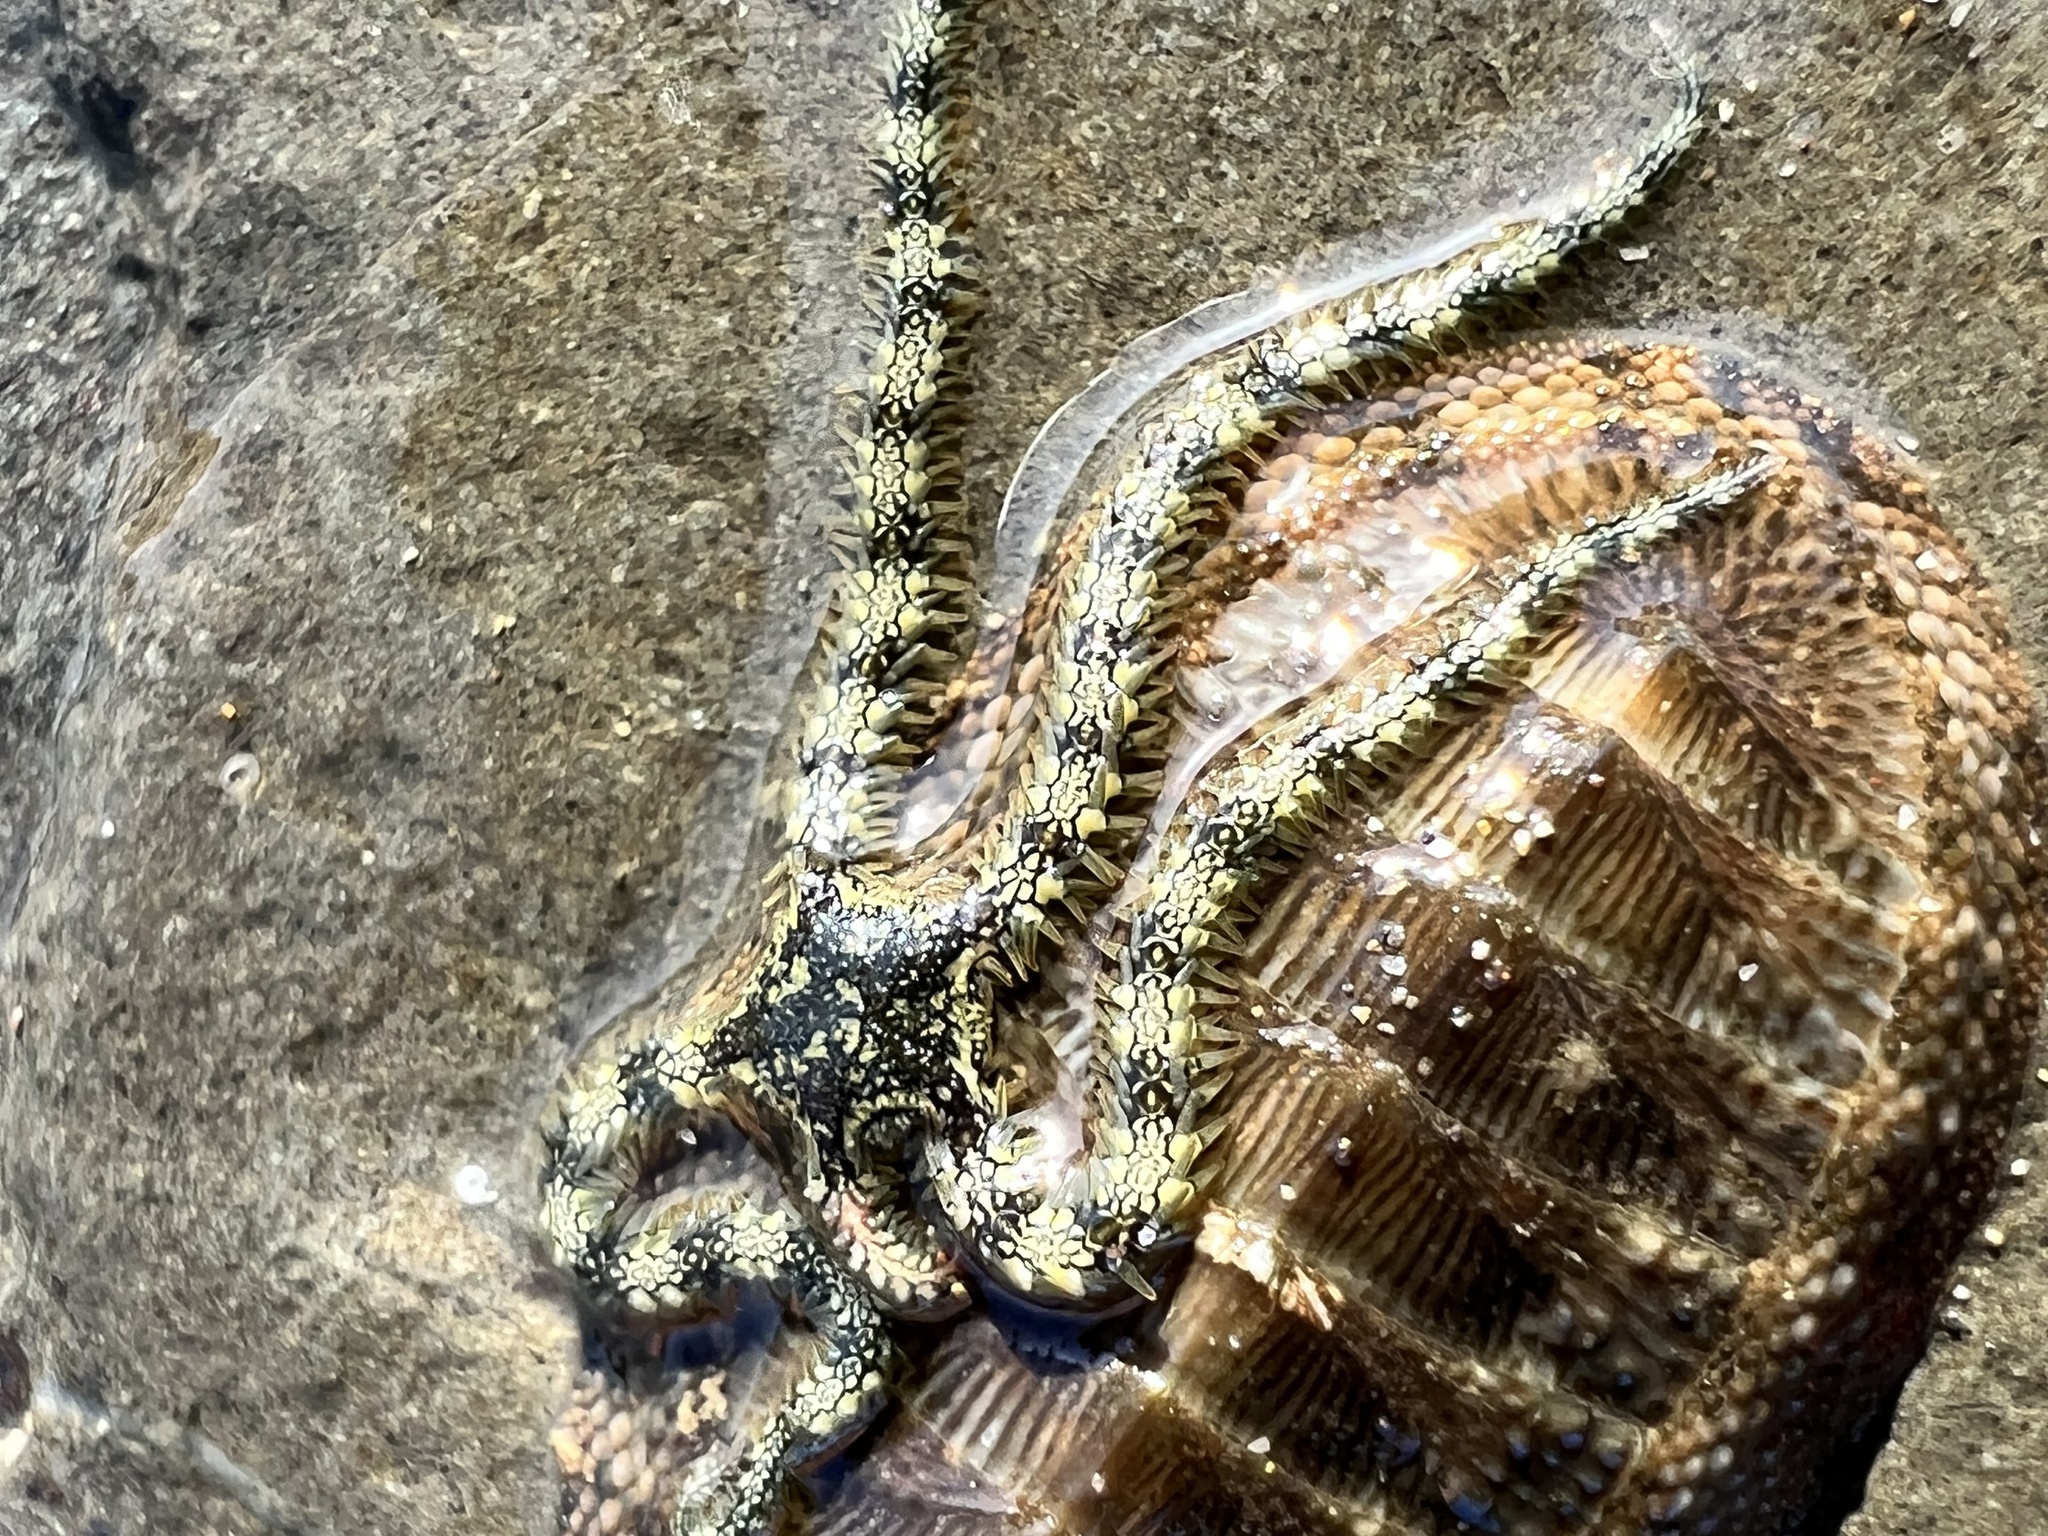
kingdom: Animalia
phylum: Echinodermata
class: Ophiuroidea
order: Ophiacanthida
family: Ophiocomidae
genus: Ophiocomella
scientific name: Ophiocomella alexandri
